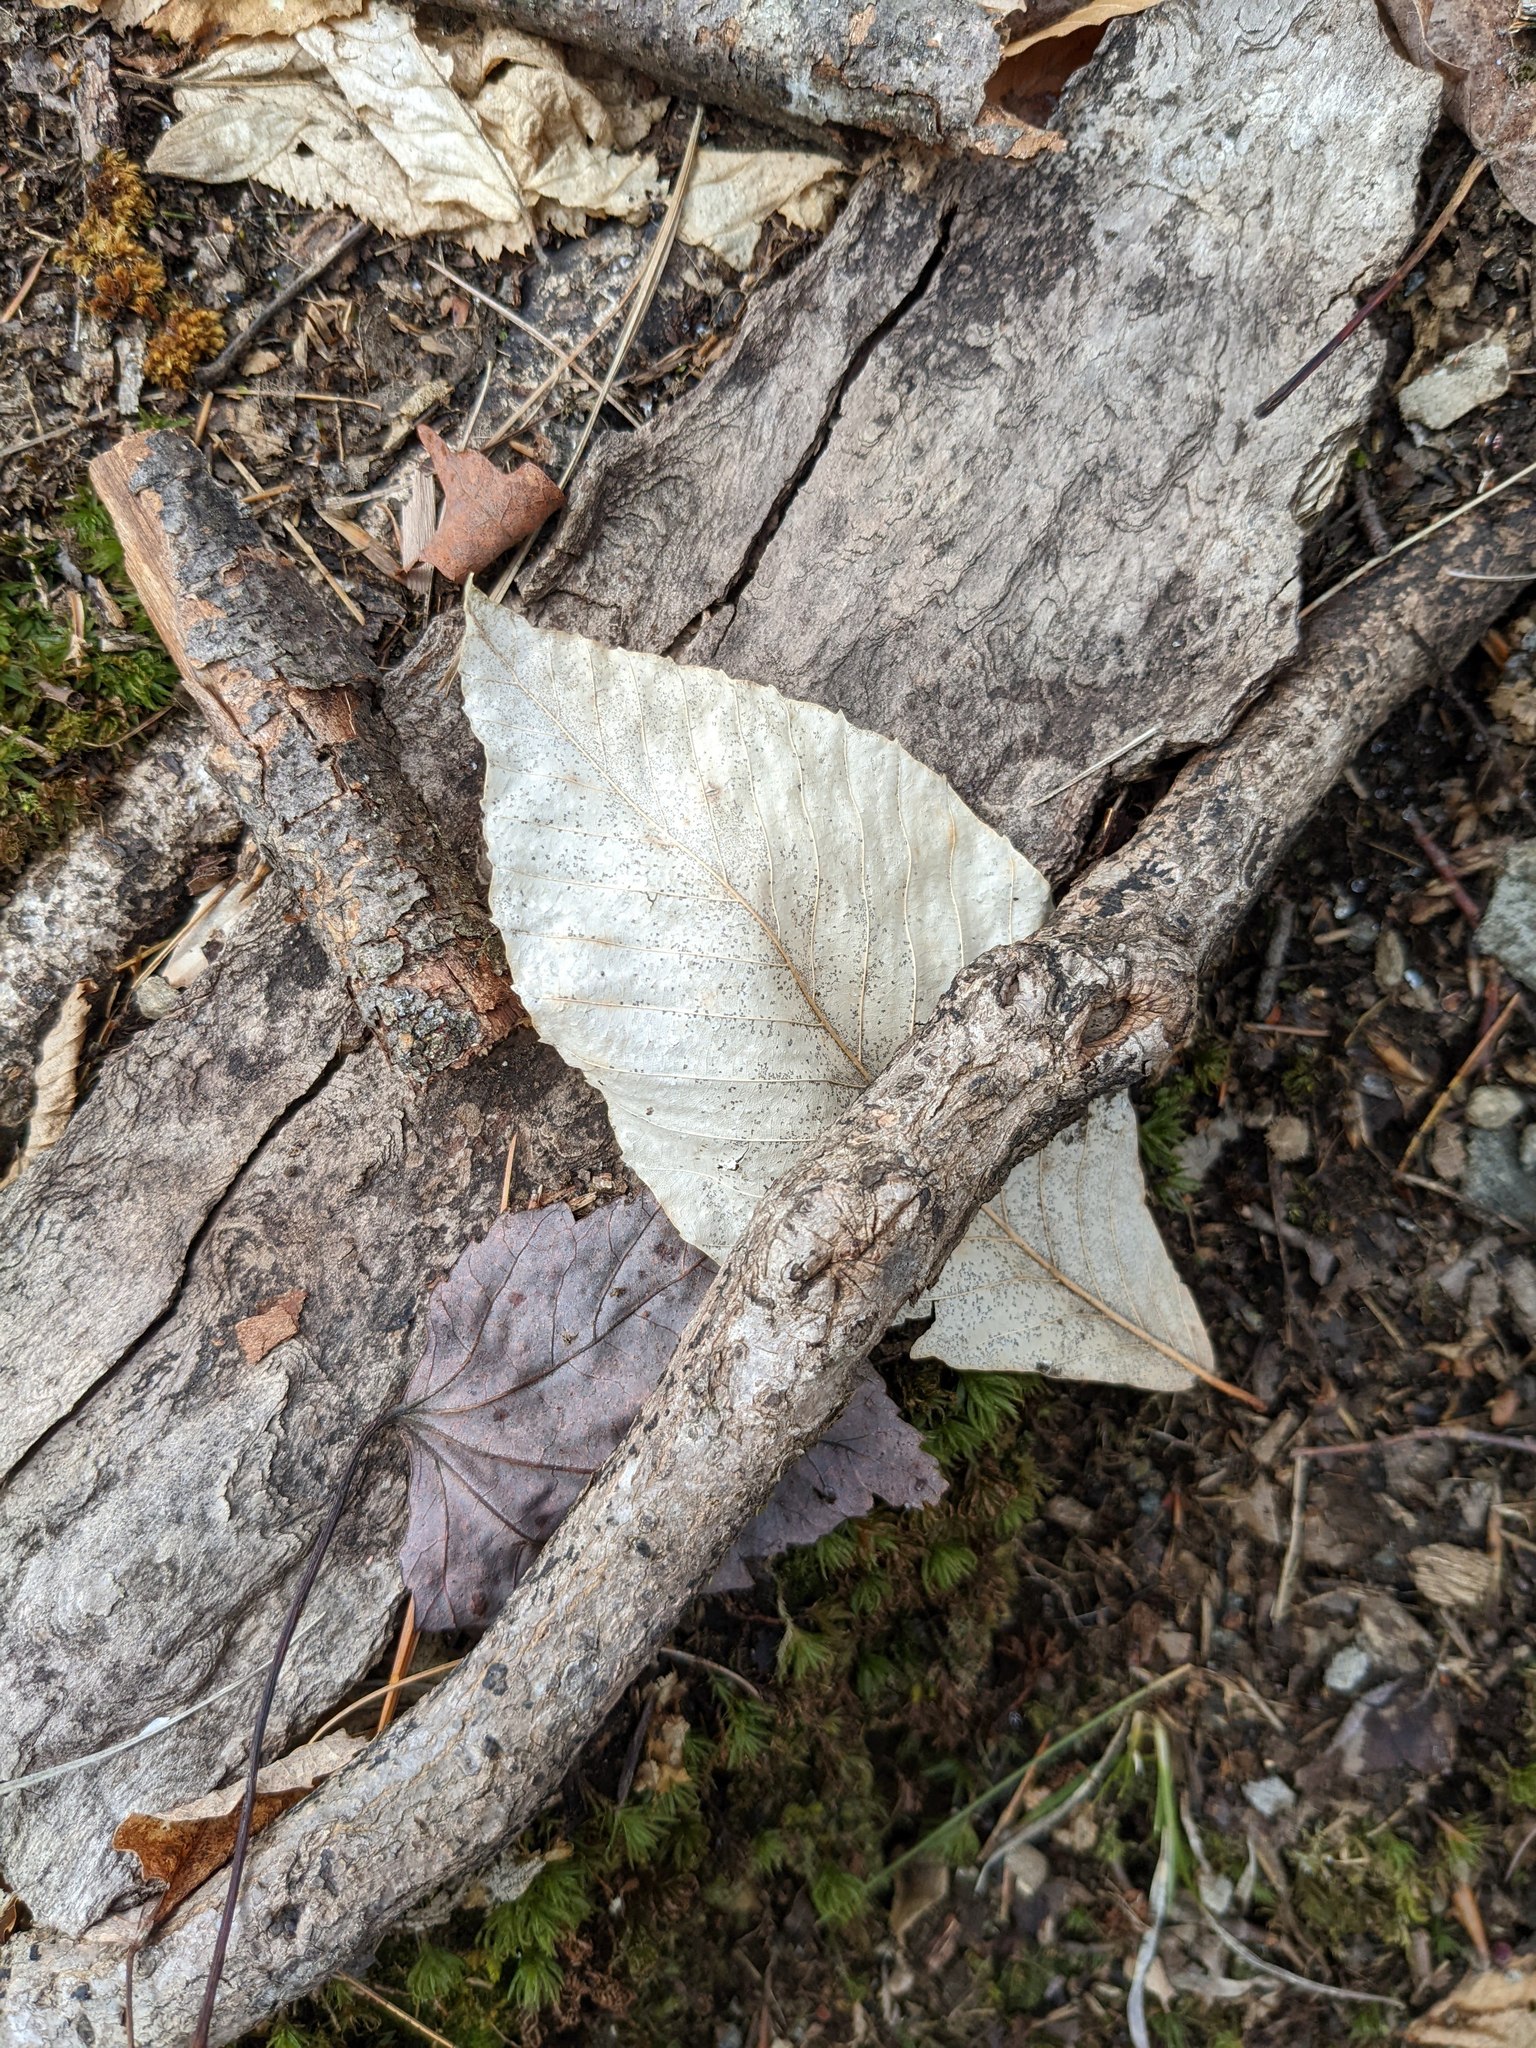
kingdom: Plantae
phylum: Tracheophyta
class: Magnoliopsida
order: Fagales
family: Fagaceae
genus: Fagus
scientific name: Fagus grandifolia
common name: American beech
